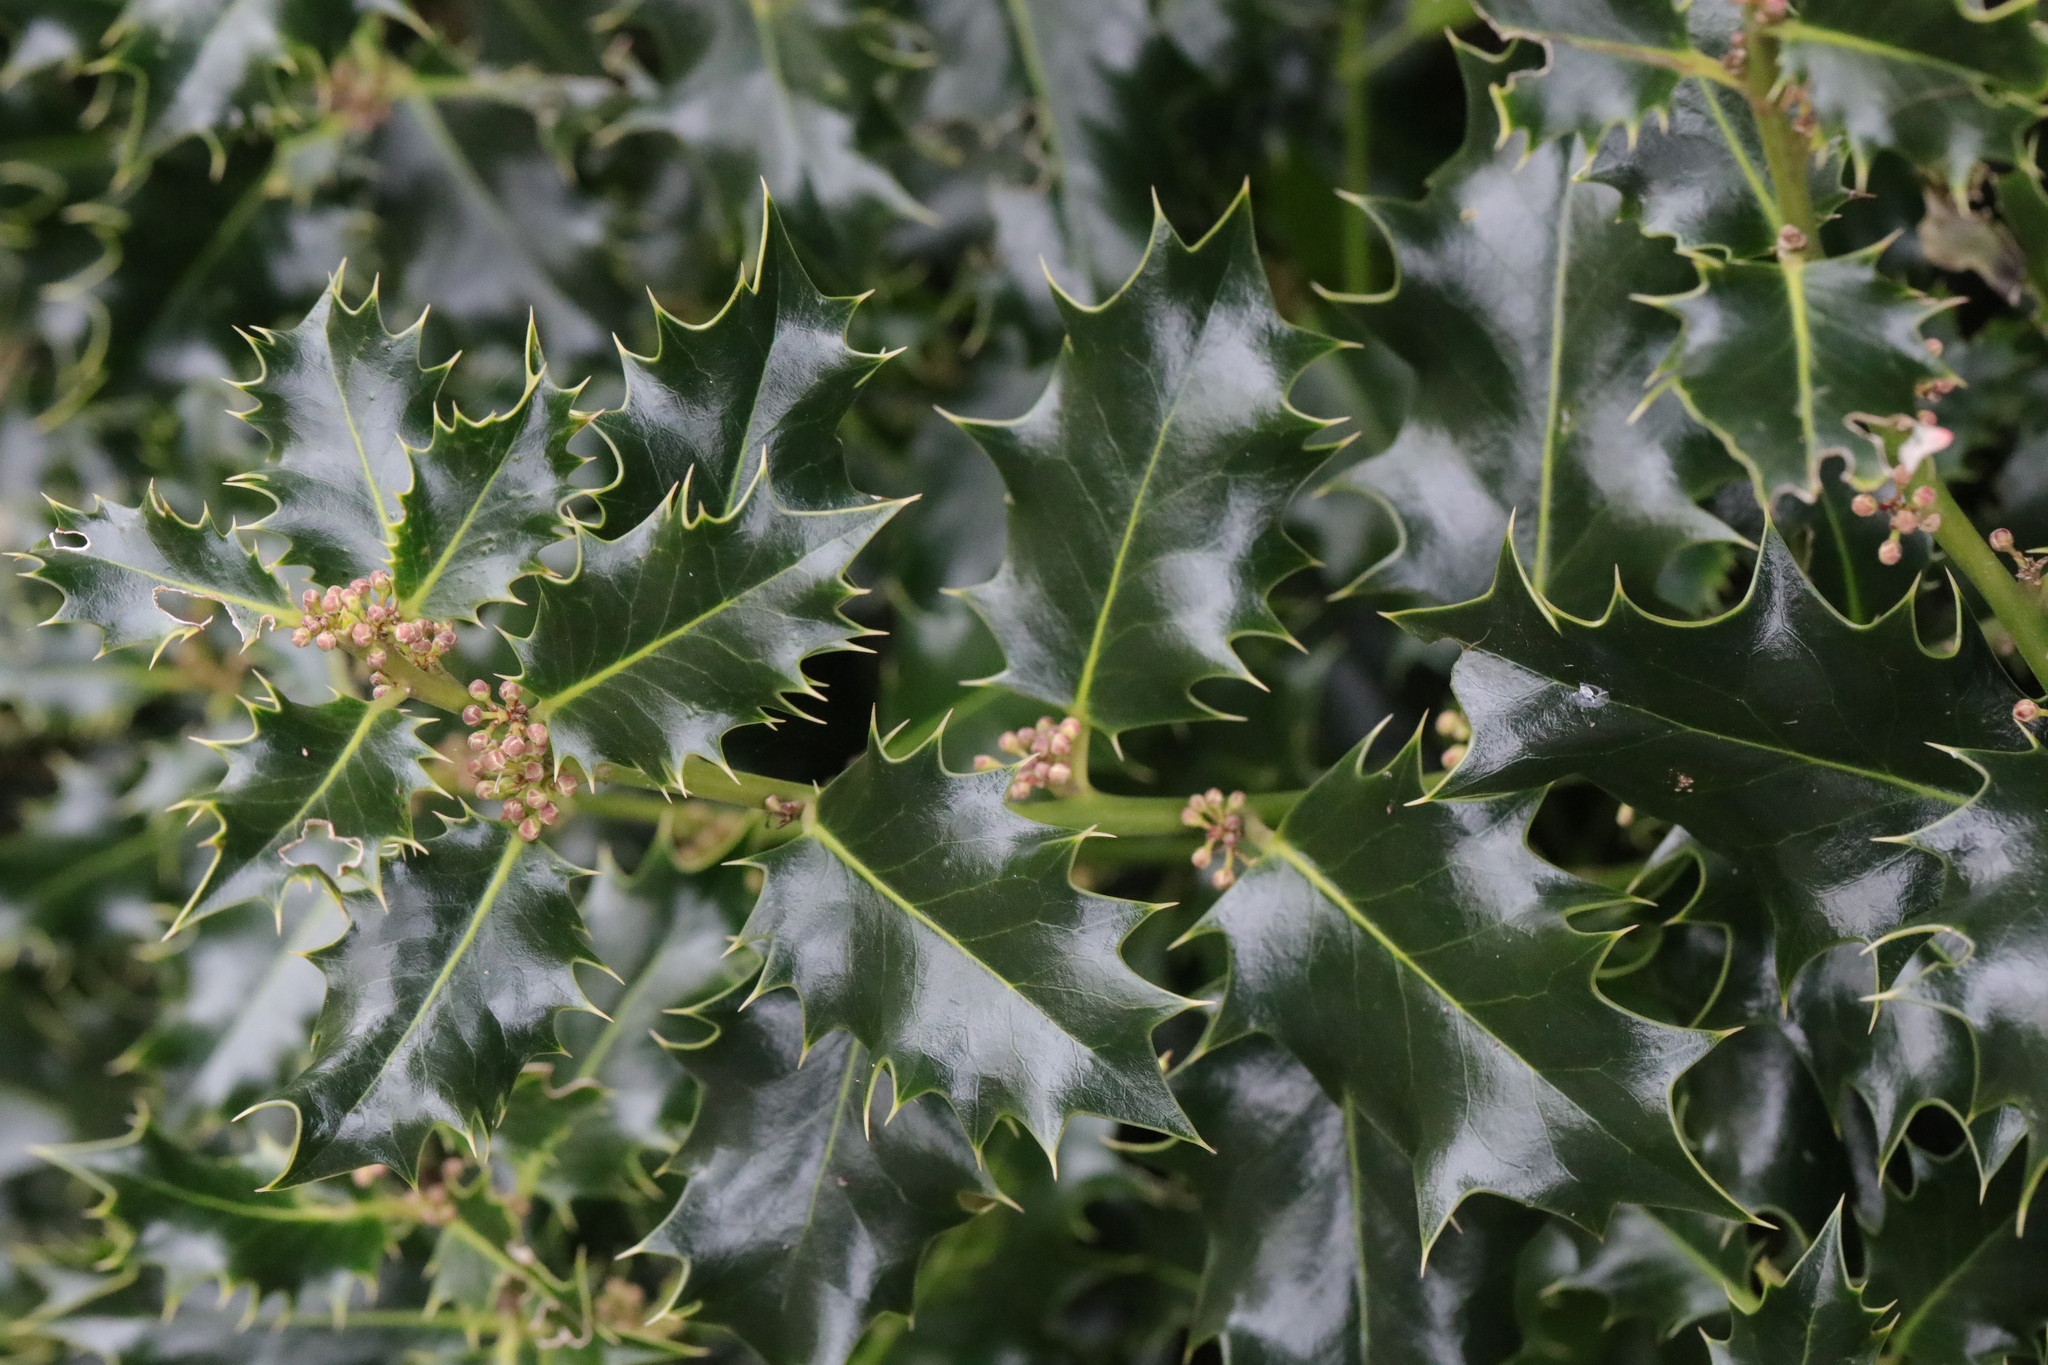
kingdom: Plantae
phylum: Tracheophyta
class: Magnoliopsida
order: Aquifoliales
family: Aquifoliaceae
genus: Ilex
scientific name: Ilex aquifolium
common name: English holly
